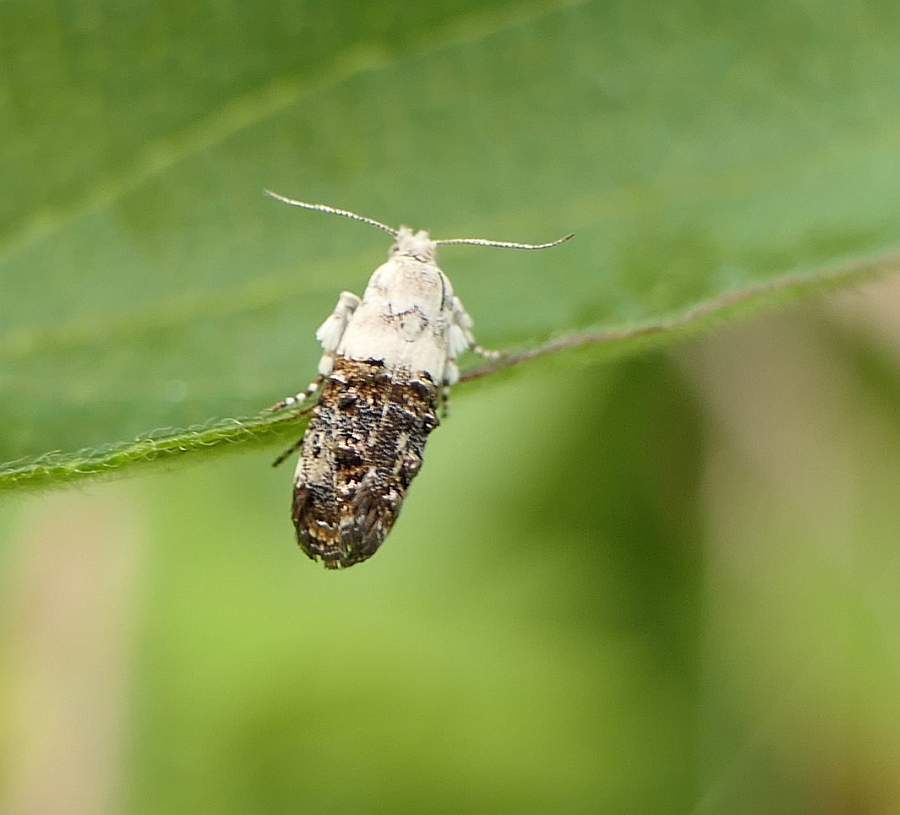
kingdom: Animalia
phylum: Arthropoda
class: Insecta
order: Lepidoptera
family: Choreutidae
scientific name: Choreutidae
